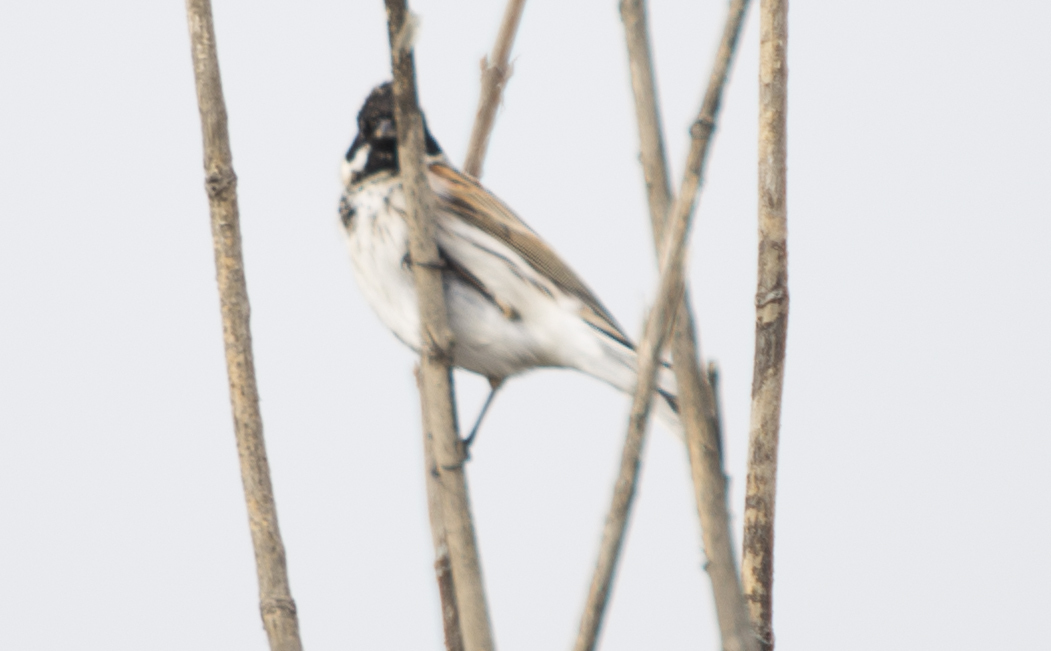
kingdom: Animalia
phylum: Chordata
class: Aves
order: Passeriformes
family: Emberizidae
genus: Emberiza
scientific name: Emberiza schoeniclus
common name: Reed bunting
